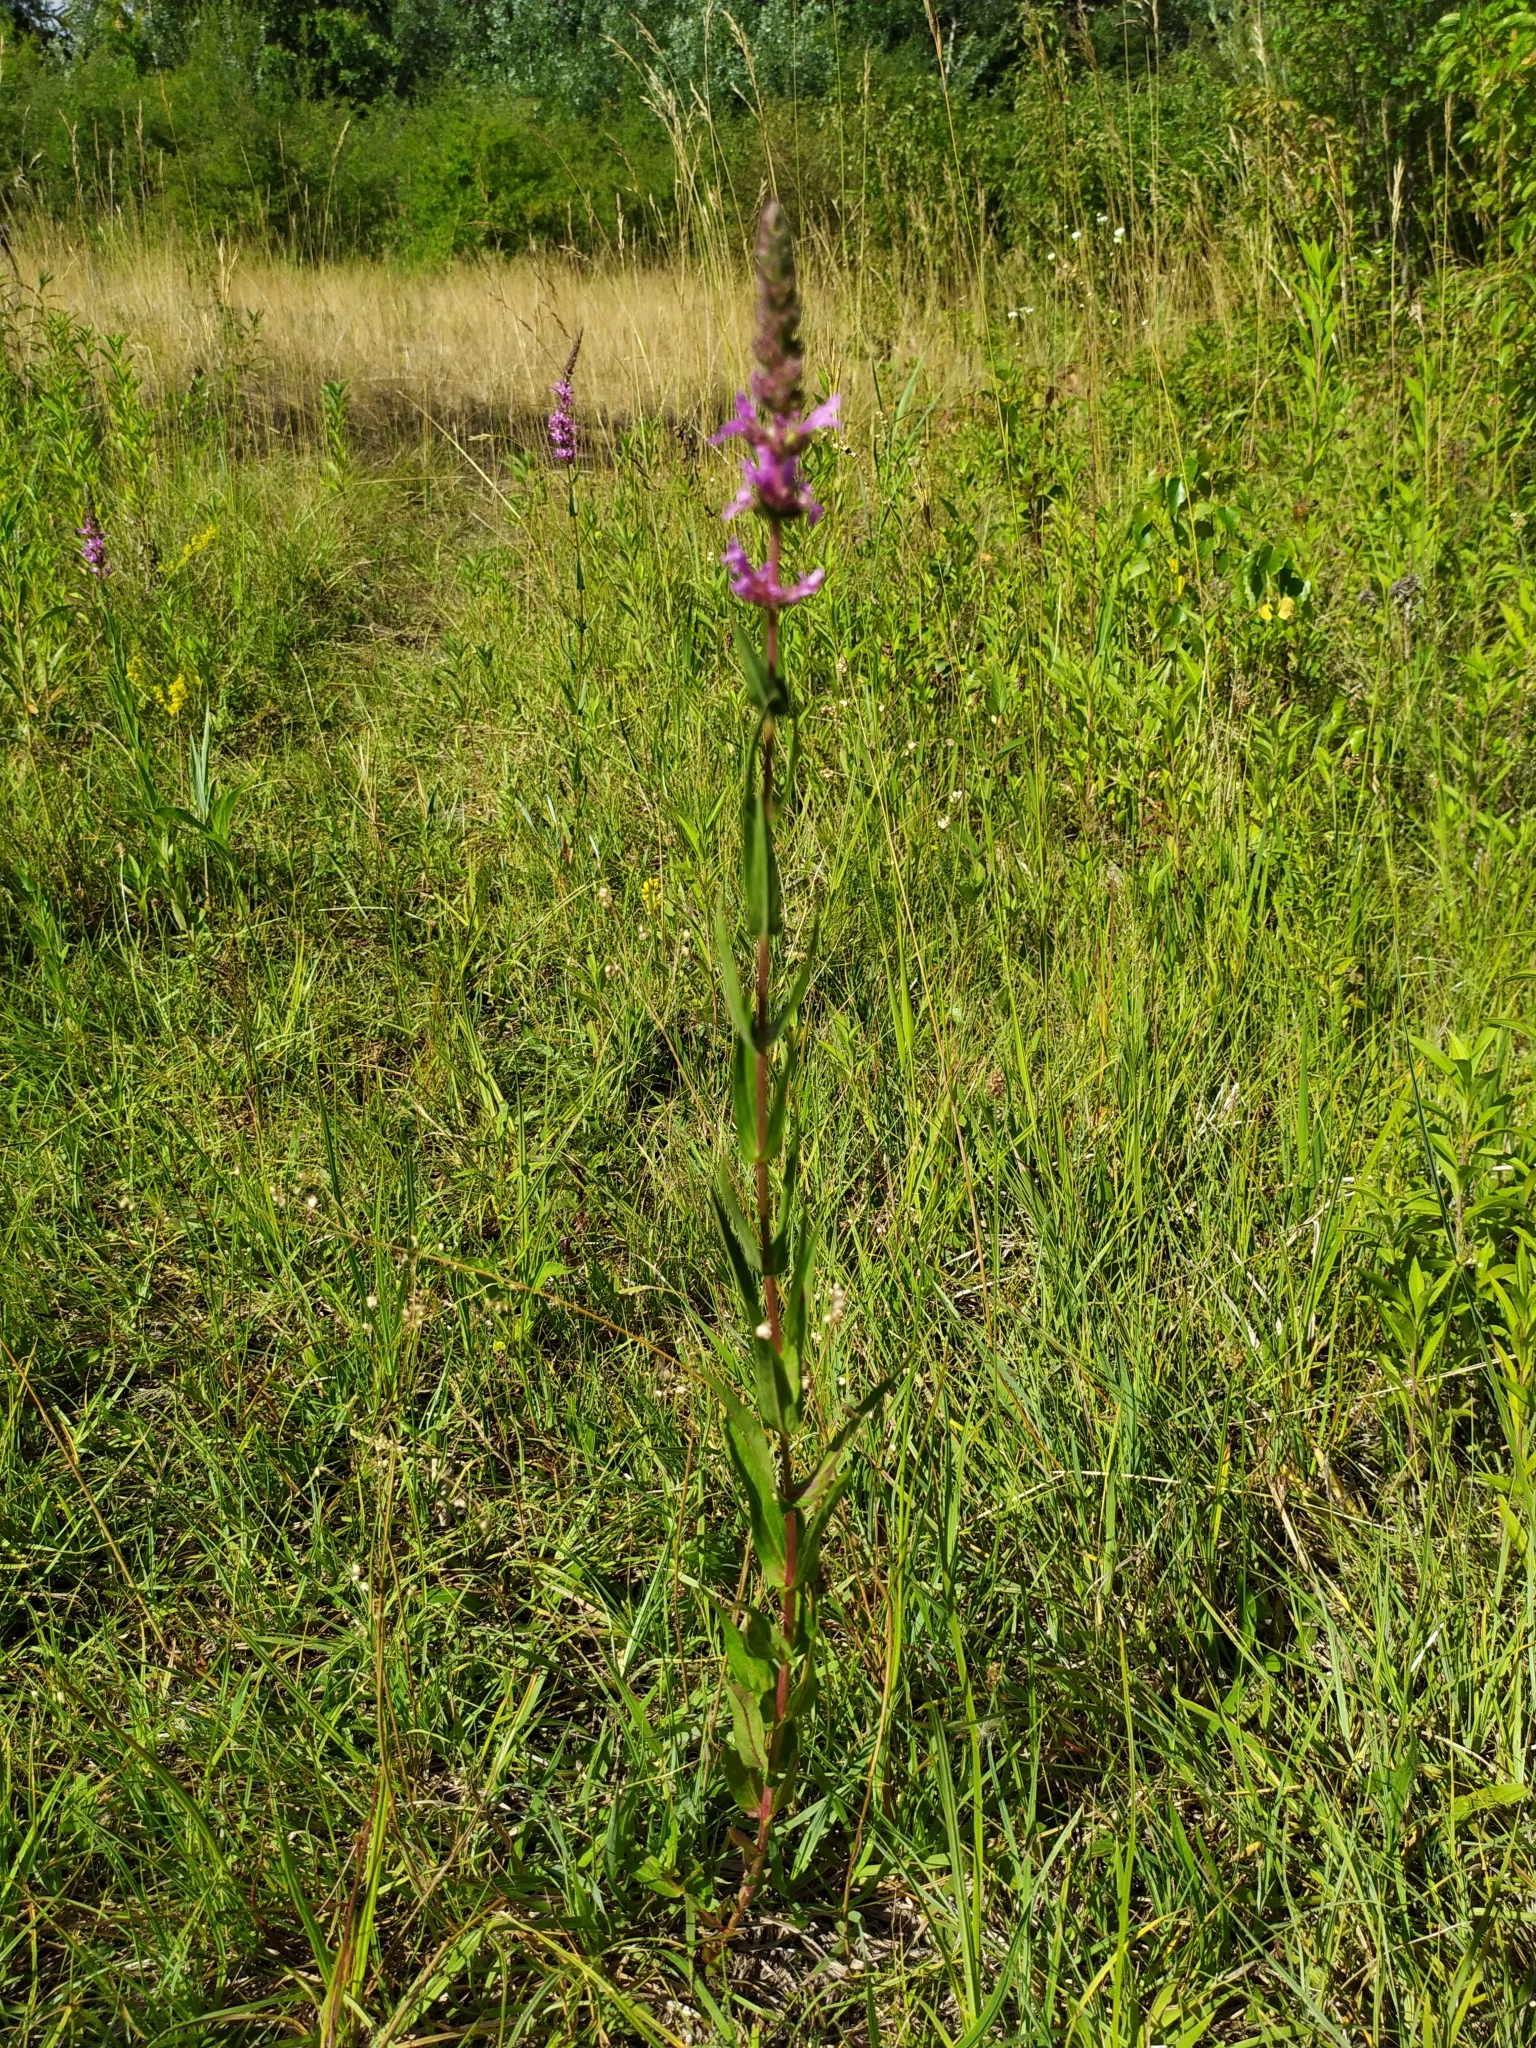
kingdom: Plantae
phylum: Tracheophyta
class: Magnoliopsida
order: Myrtales
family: Lythraceae
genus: Lythrum
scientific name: Lythrum salicaria
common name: Purple loosestrife
